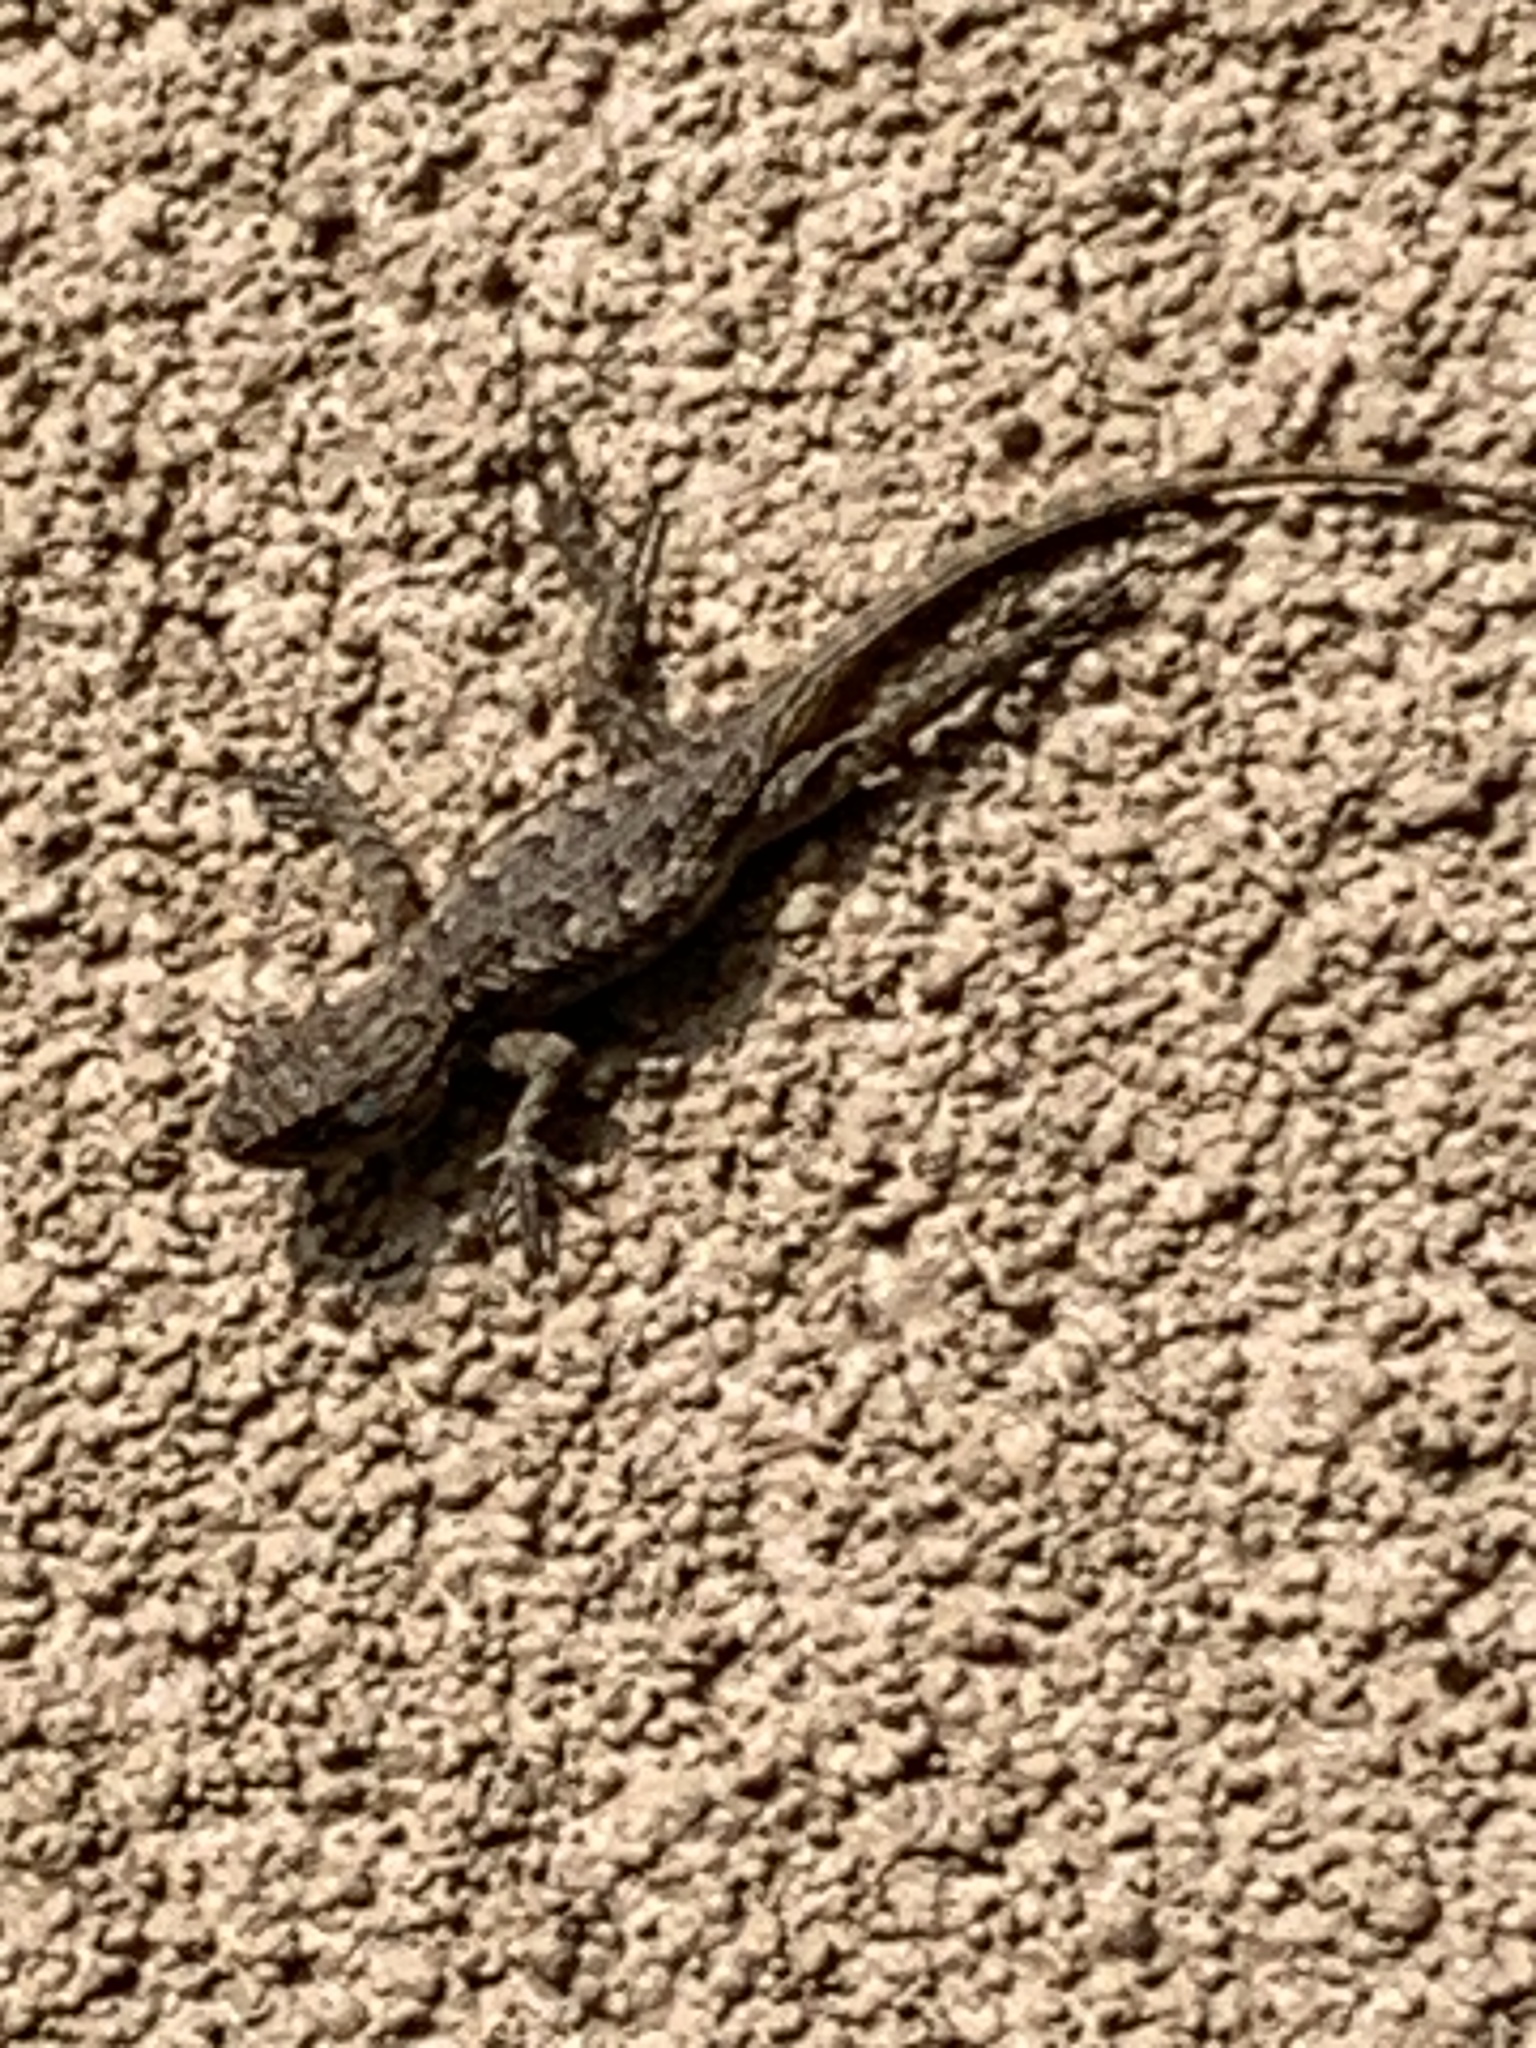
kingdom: Animalia
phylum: Chordata
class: Squamata
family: Phrynosomatidae
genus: Sceloporus
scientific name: Sceloporus occidentalis
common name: Western fence lizard
